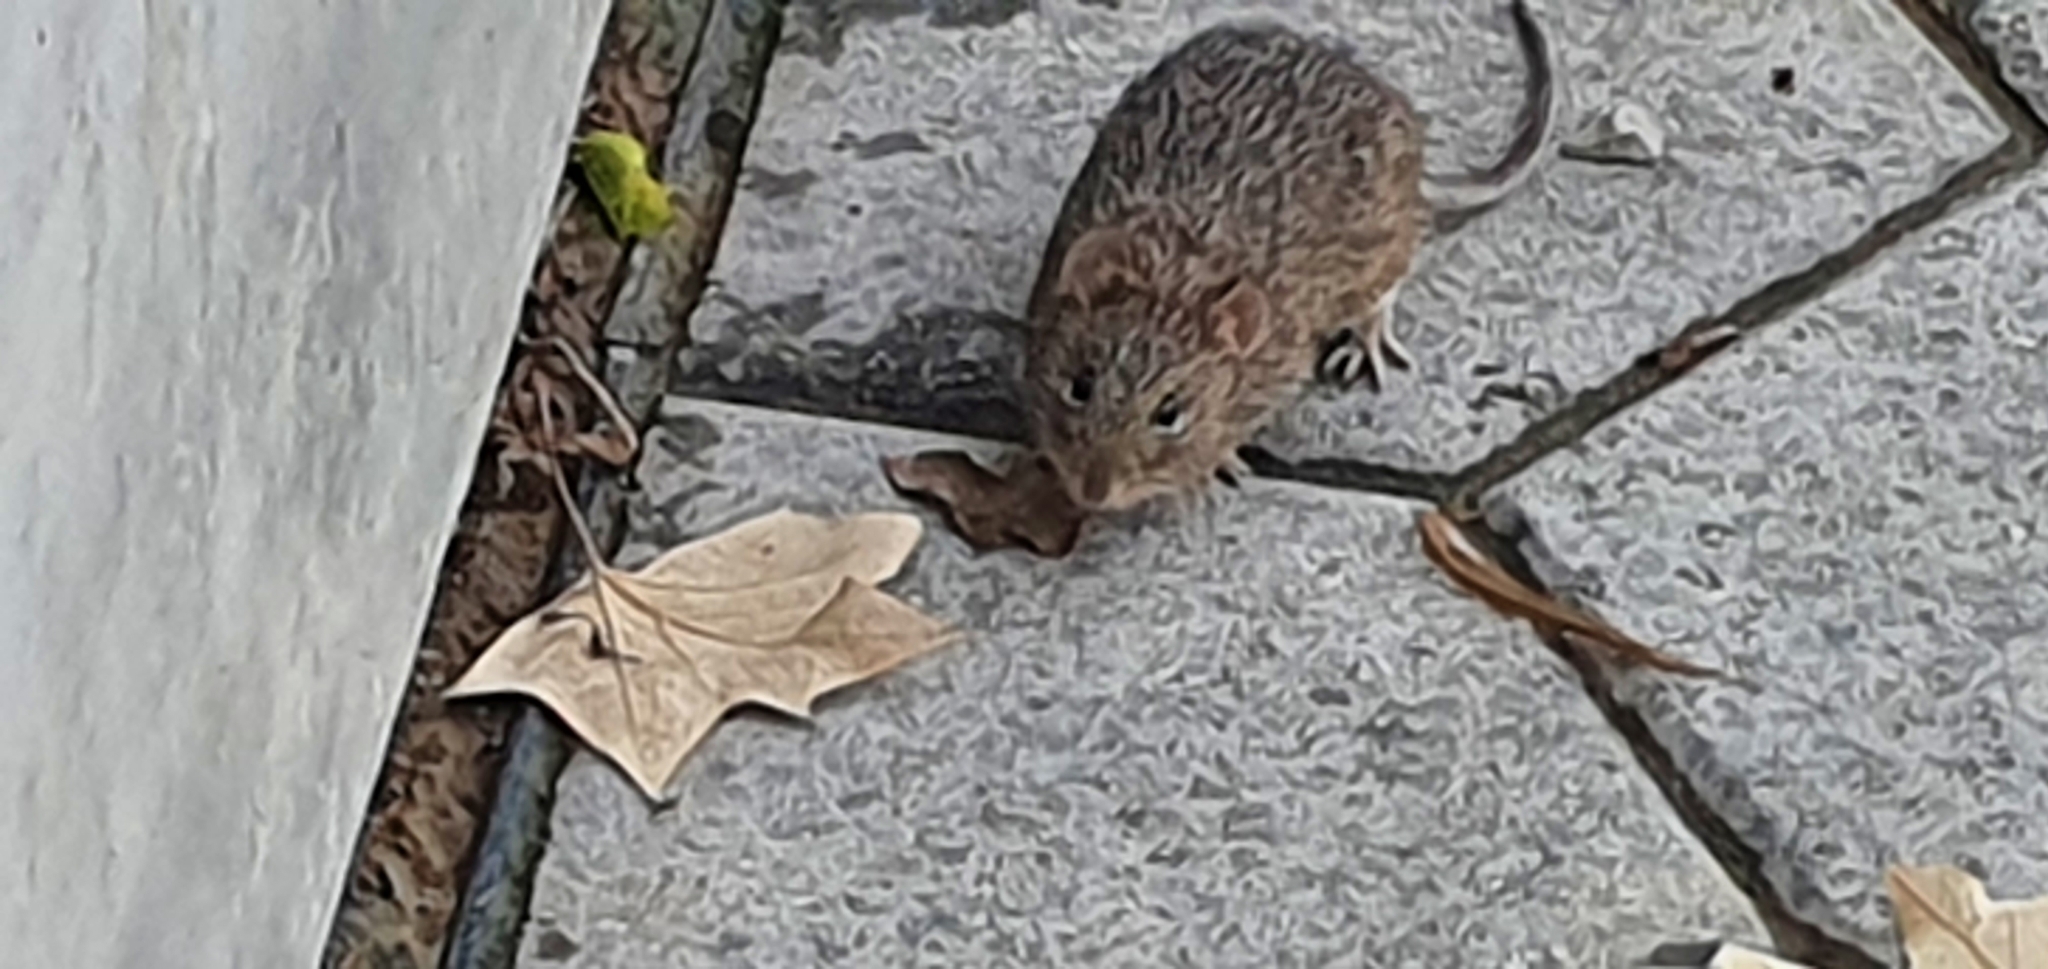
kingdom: Animalia
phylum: Chordata
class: Mammalia
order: Rodentia
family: Cricetidae
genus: Sigmodon
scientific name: Sigmodon hispidus
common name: Hispid cotton rat
